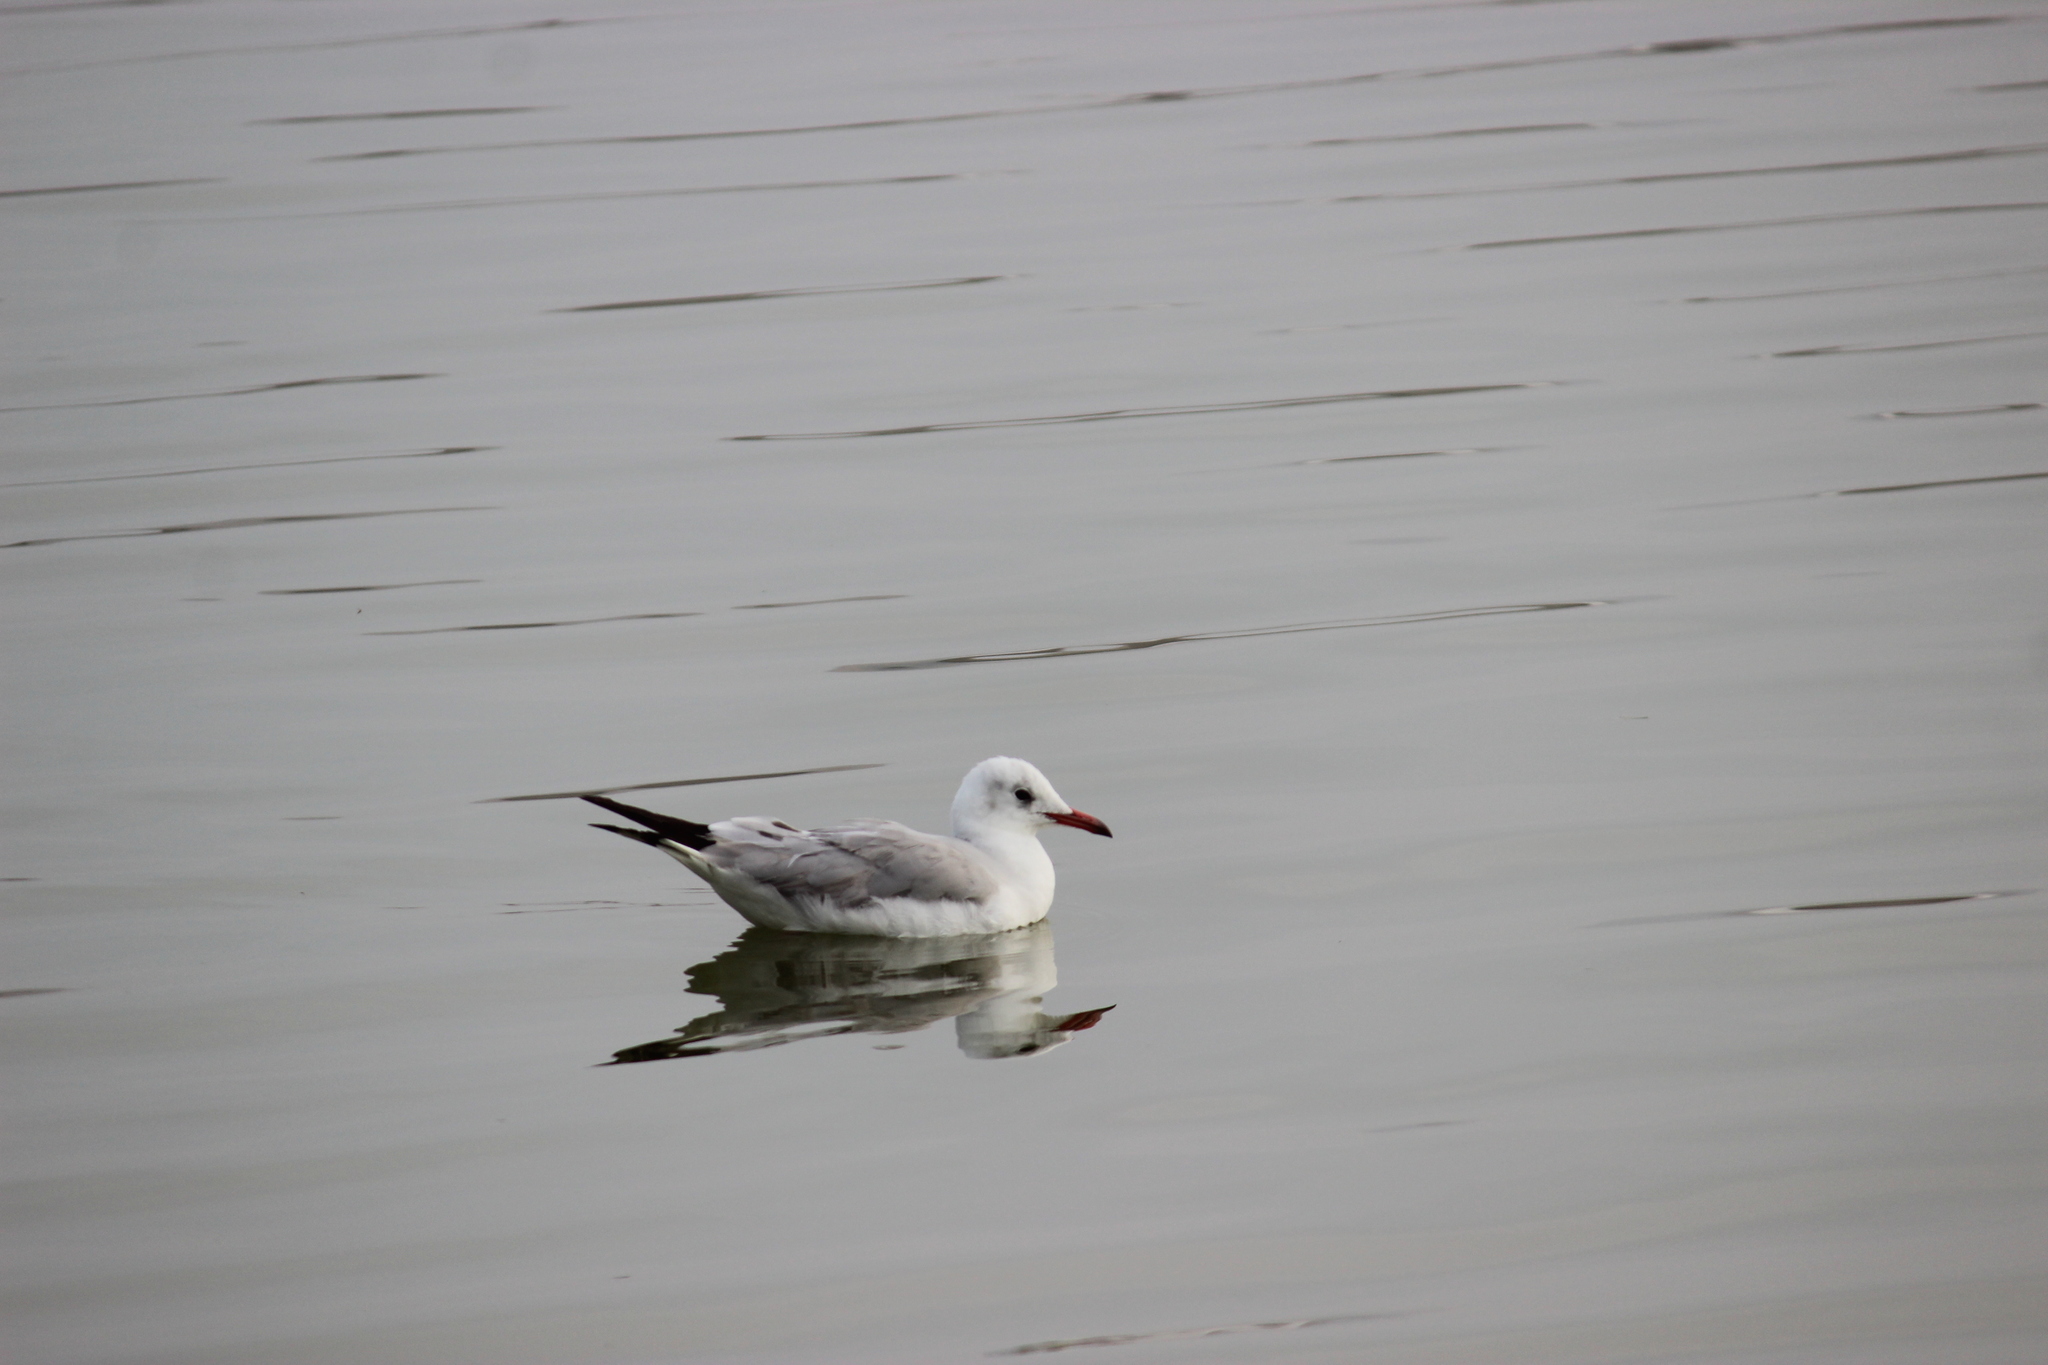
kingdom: Animalia
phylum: Chordata
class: Aves
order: Charadriiformes
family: Laridae
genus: Chroicocephalus
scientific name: Chroicocephalus cirrocephalus
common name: Grey-headed gull
